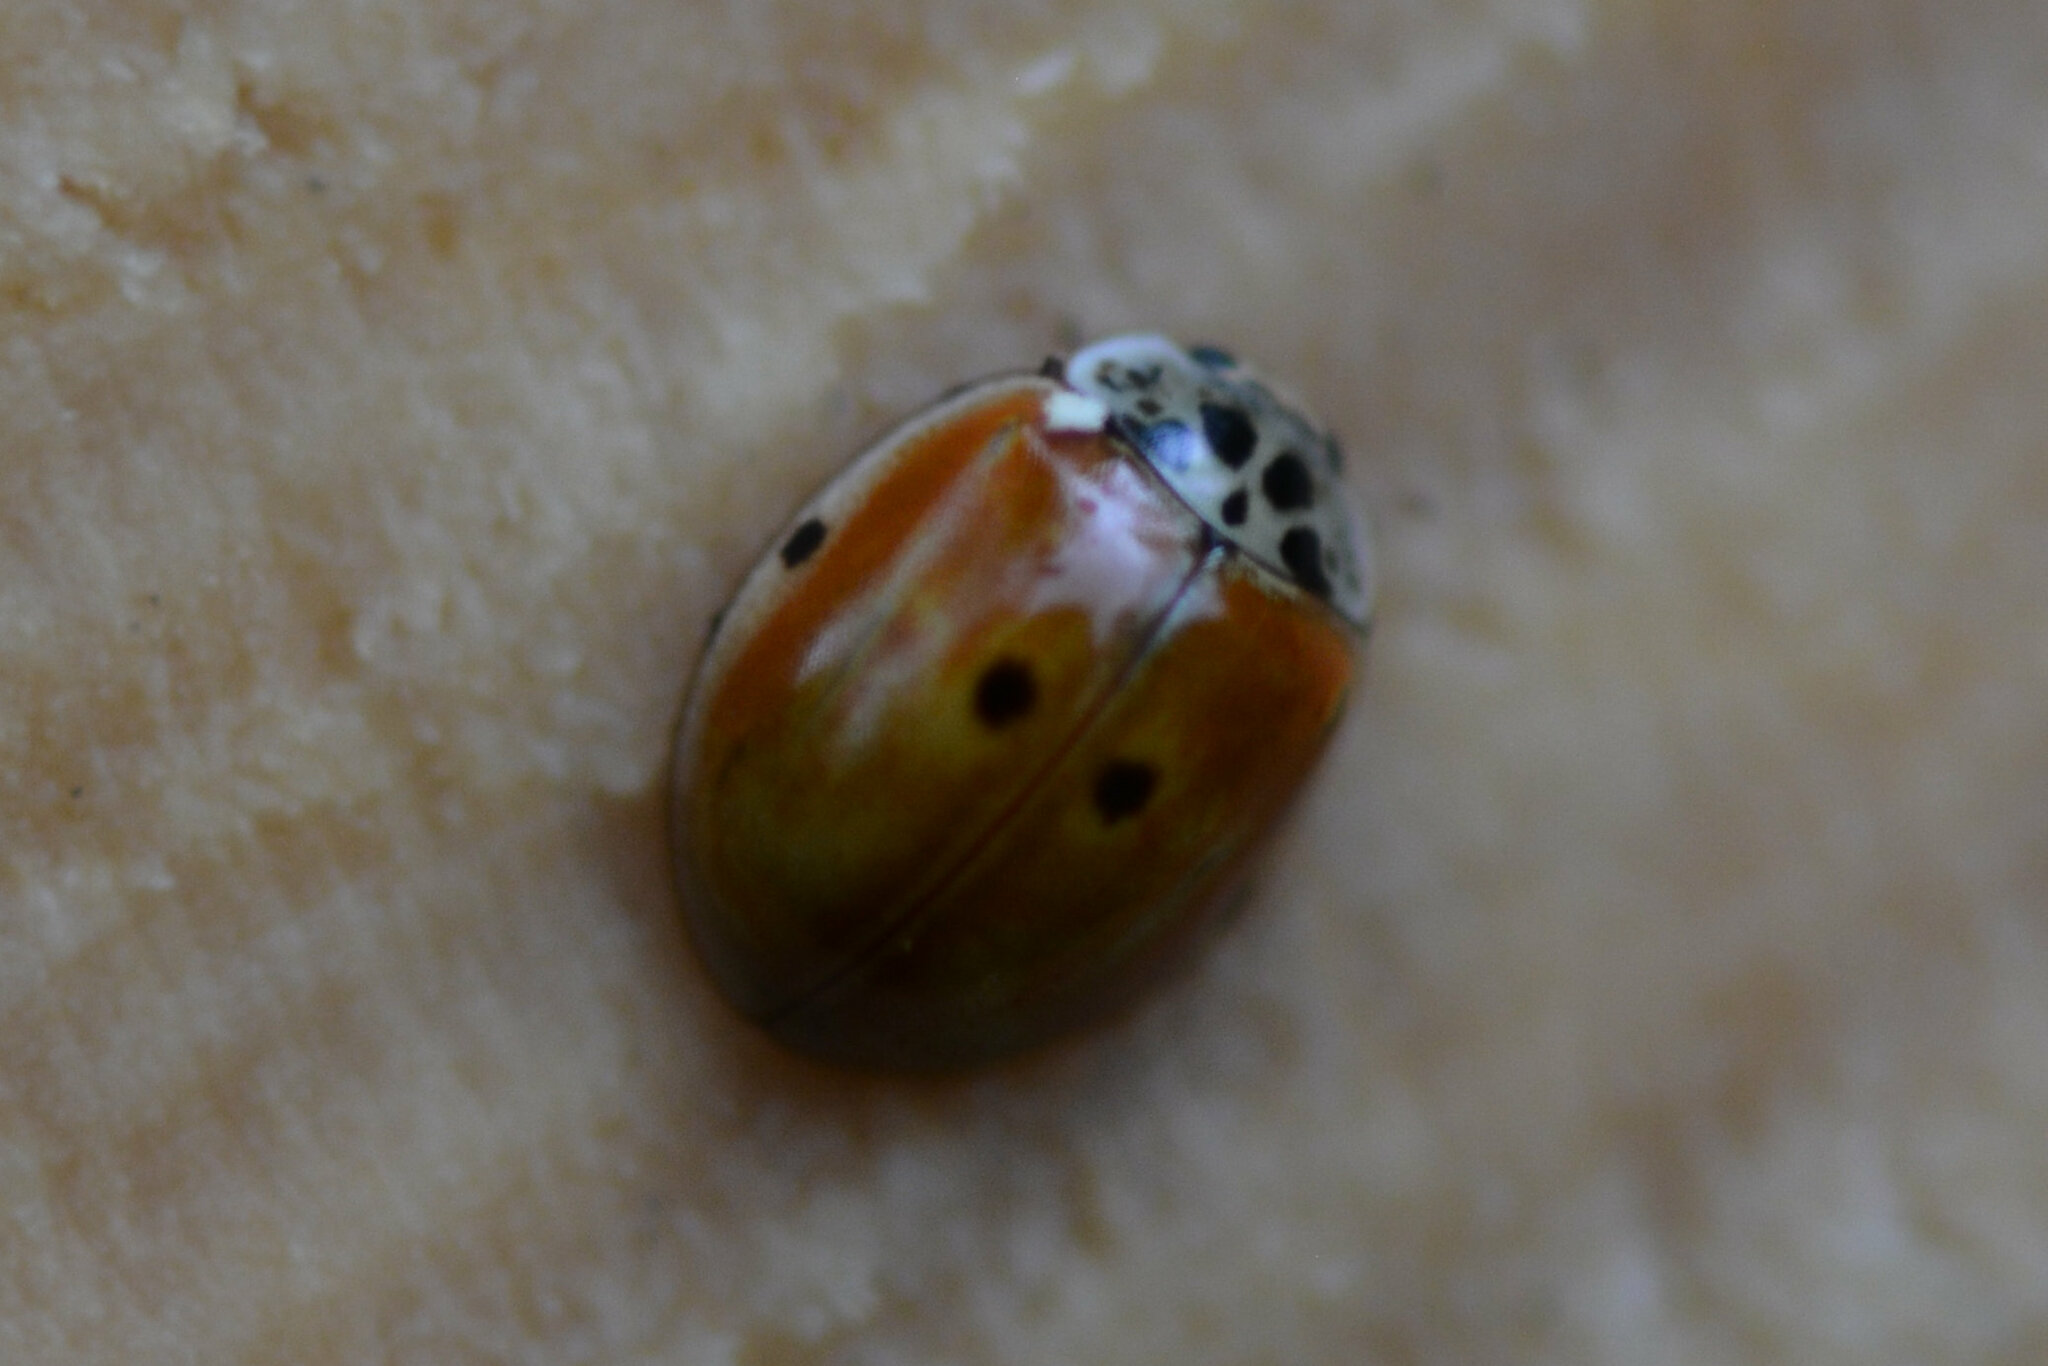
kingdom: Animalia
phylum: Arthropoda
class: Insecta
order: Coleoptera
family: Coccinellidae
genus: Adalia
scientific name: Adalia decempunctata
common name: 10-spot ladybird
